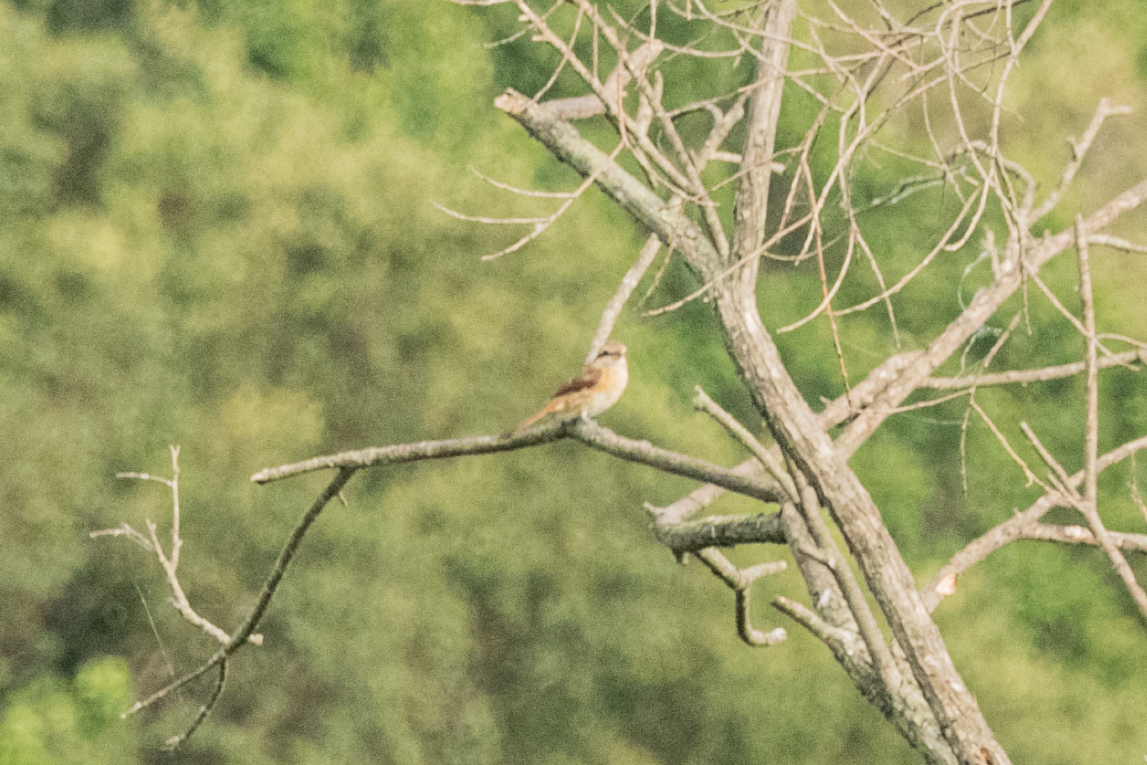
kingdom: Animalia
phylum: Chordata
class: Aves
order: Passeriformes
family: Laniidae
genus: Lanius
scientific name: Lanius cristatus
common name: Brown shrike
